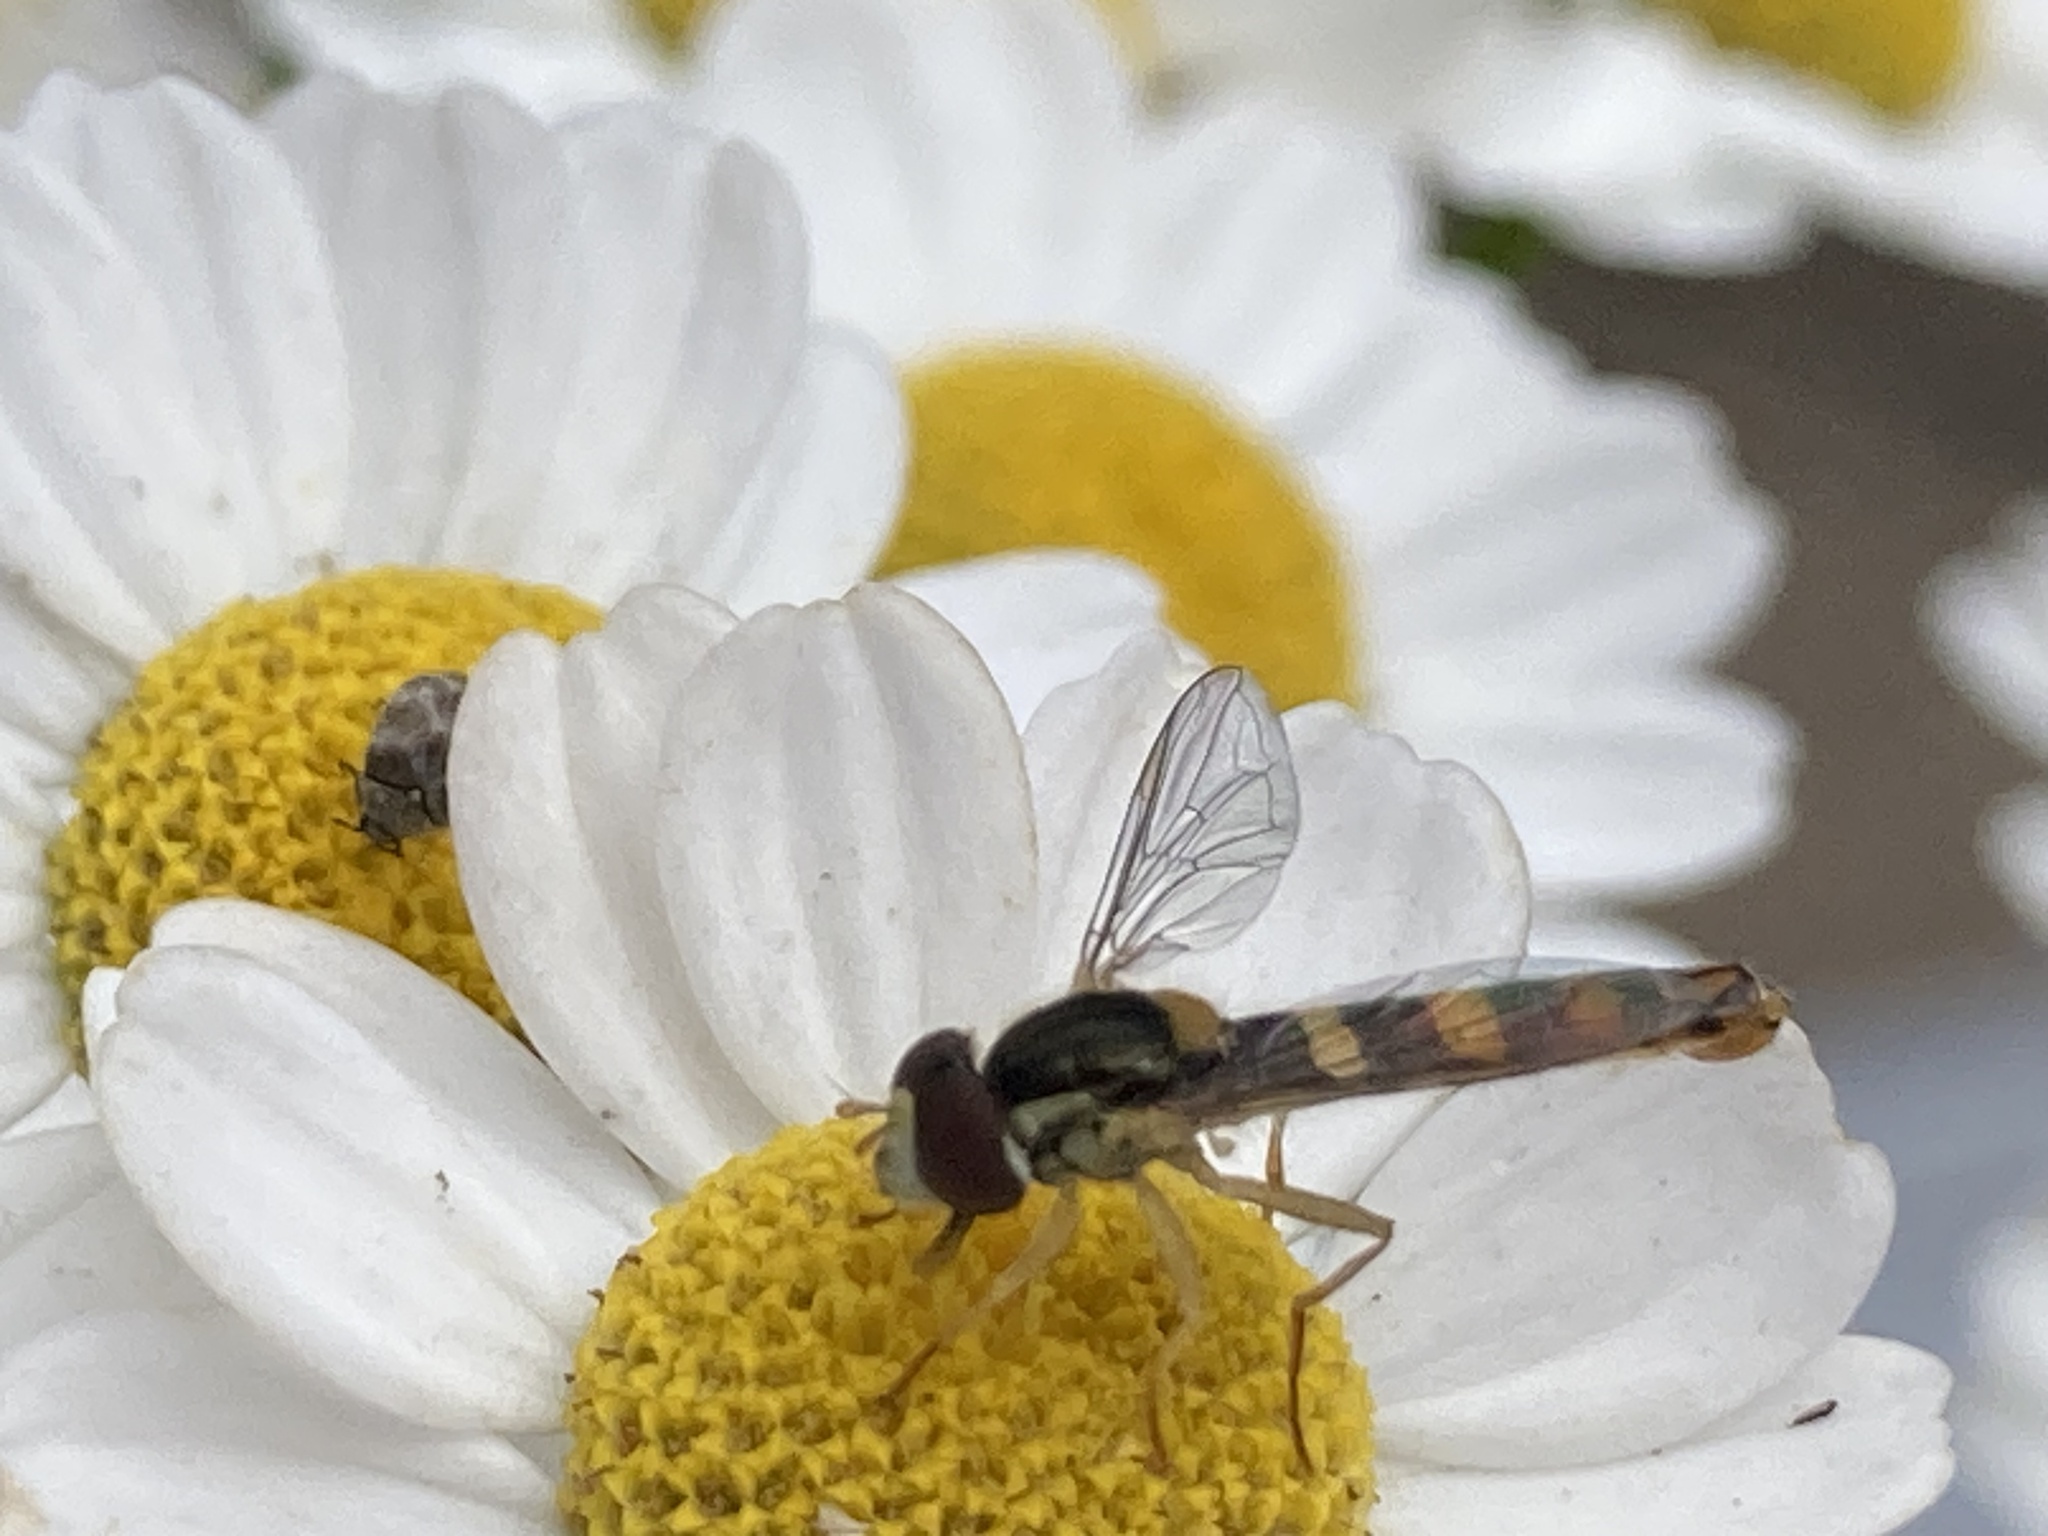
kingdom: Animalia
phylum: Arthropoda
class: Insecta
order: Diptera
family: Syrphidae
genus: Sphaerophoria
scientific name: Sphaerophoria scripta
